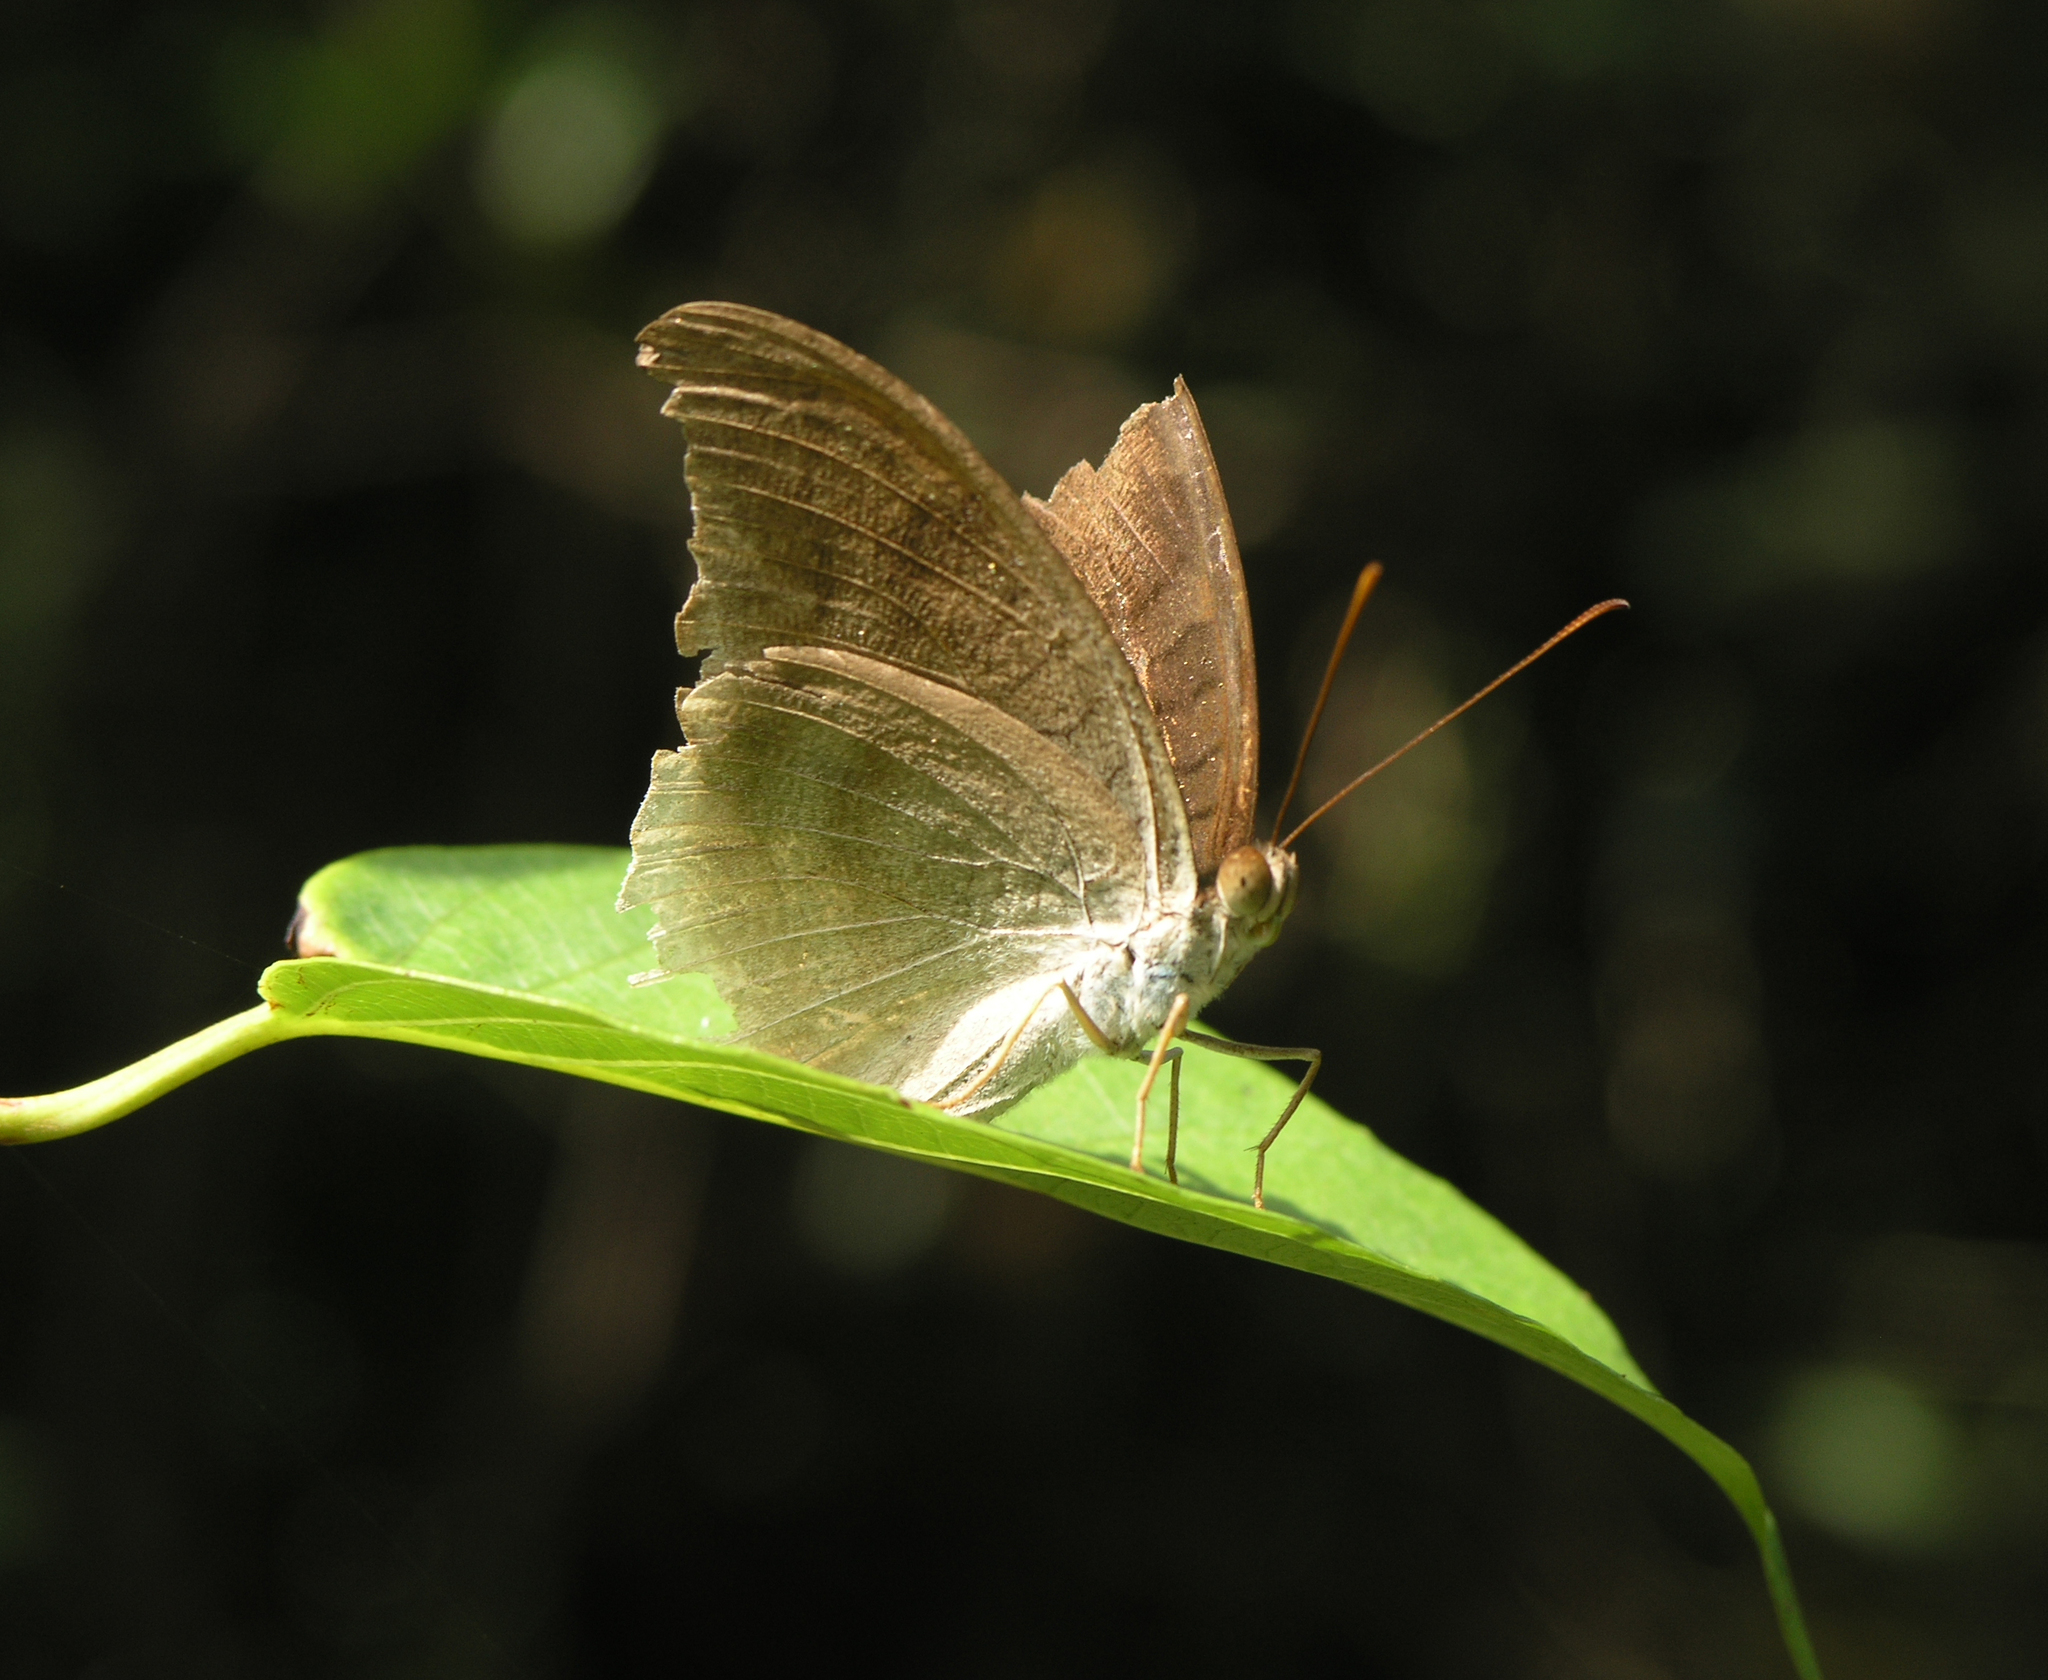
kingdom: Animalia
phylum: Arthropoda
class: Insecta
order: Lepidoptera
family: Nymphalidae
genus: Tanaecia
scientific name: Tanaecia lepidea
